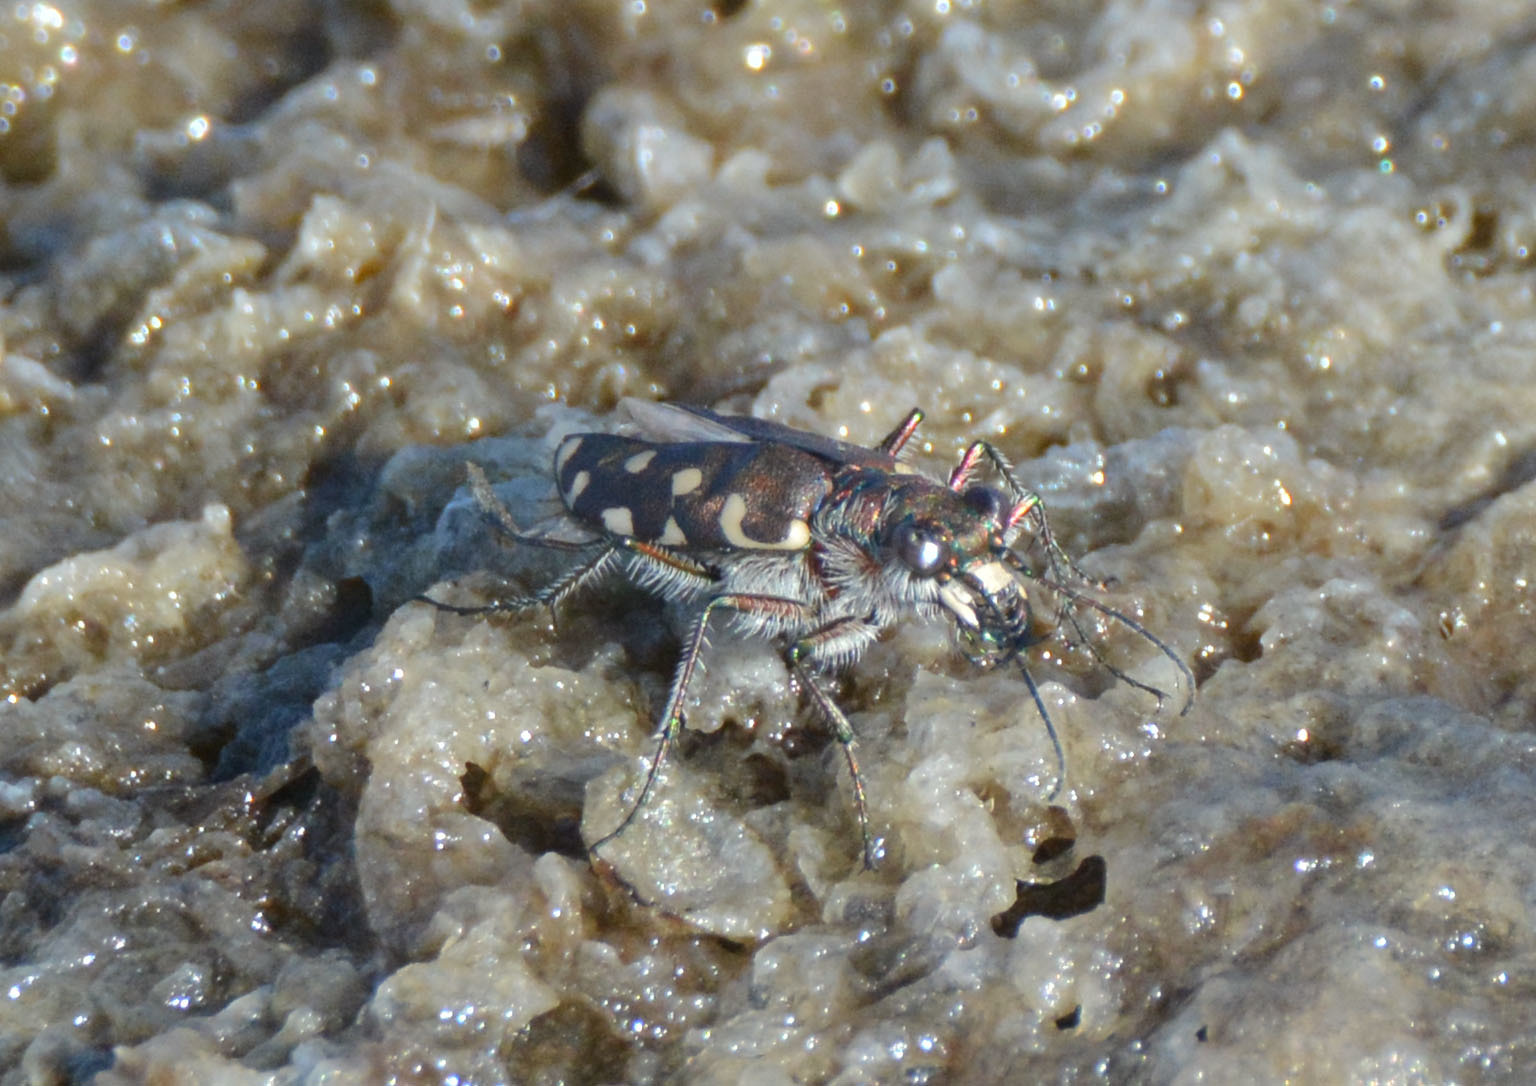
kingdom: Animalia
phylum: Arthropoda
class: Insecta
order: Coleoptera
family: Carabidae
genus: Cicindela
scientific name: Cicindela littoralis
